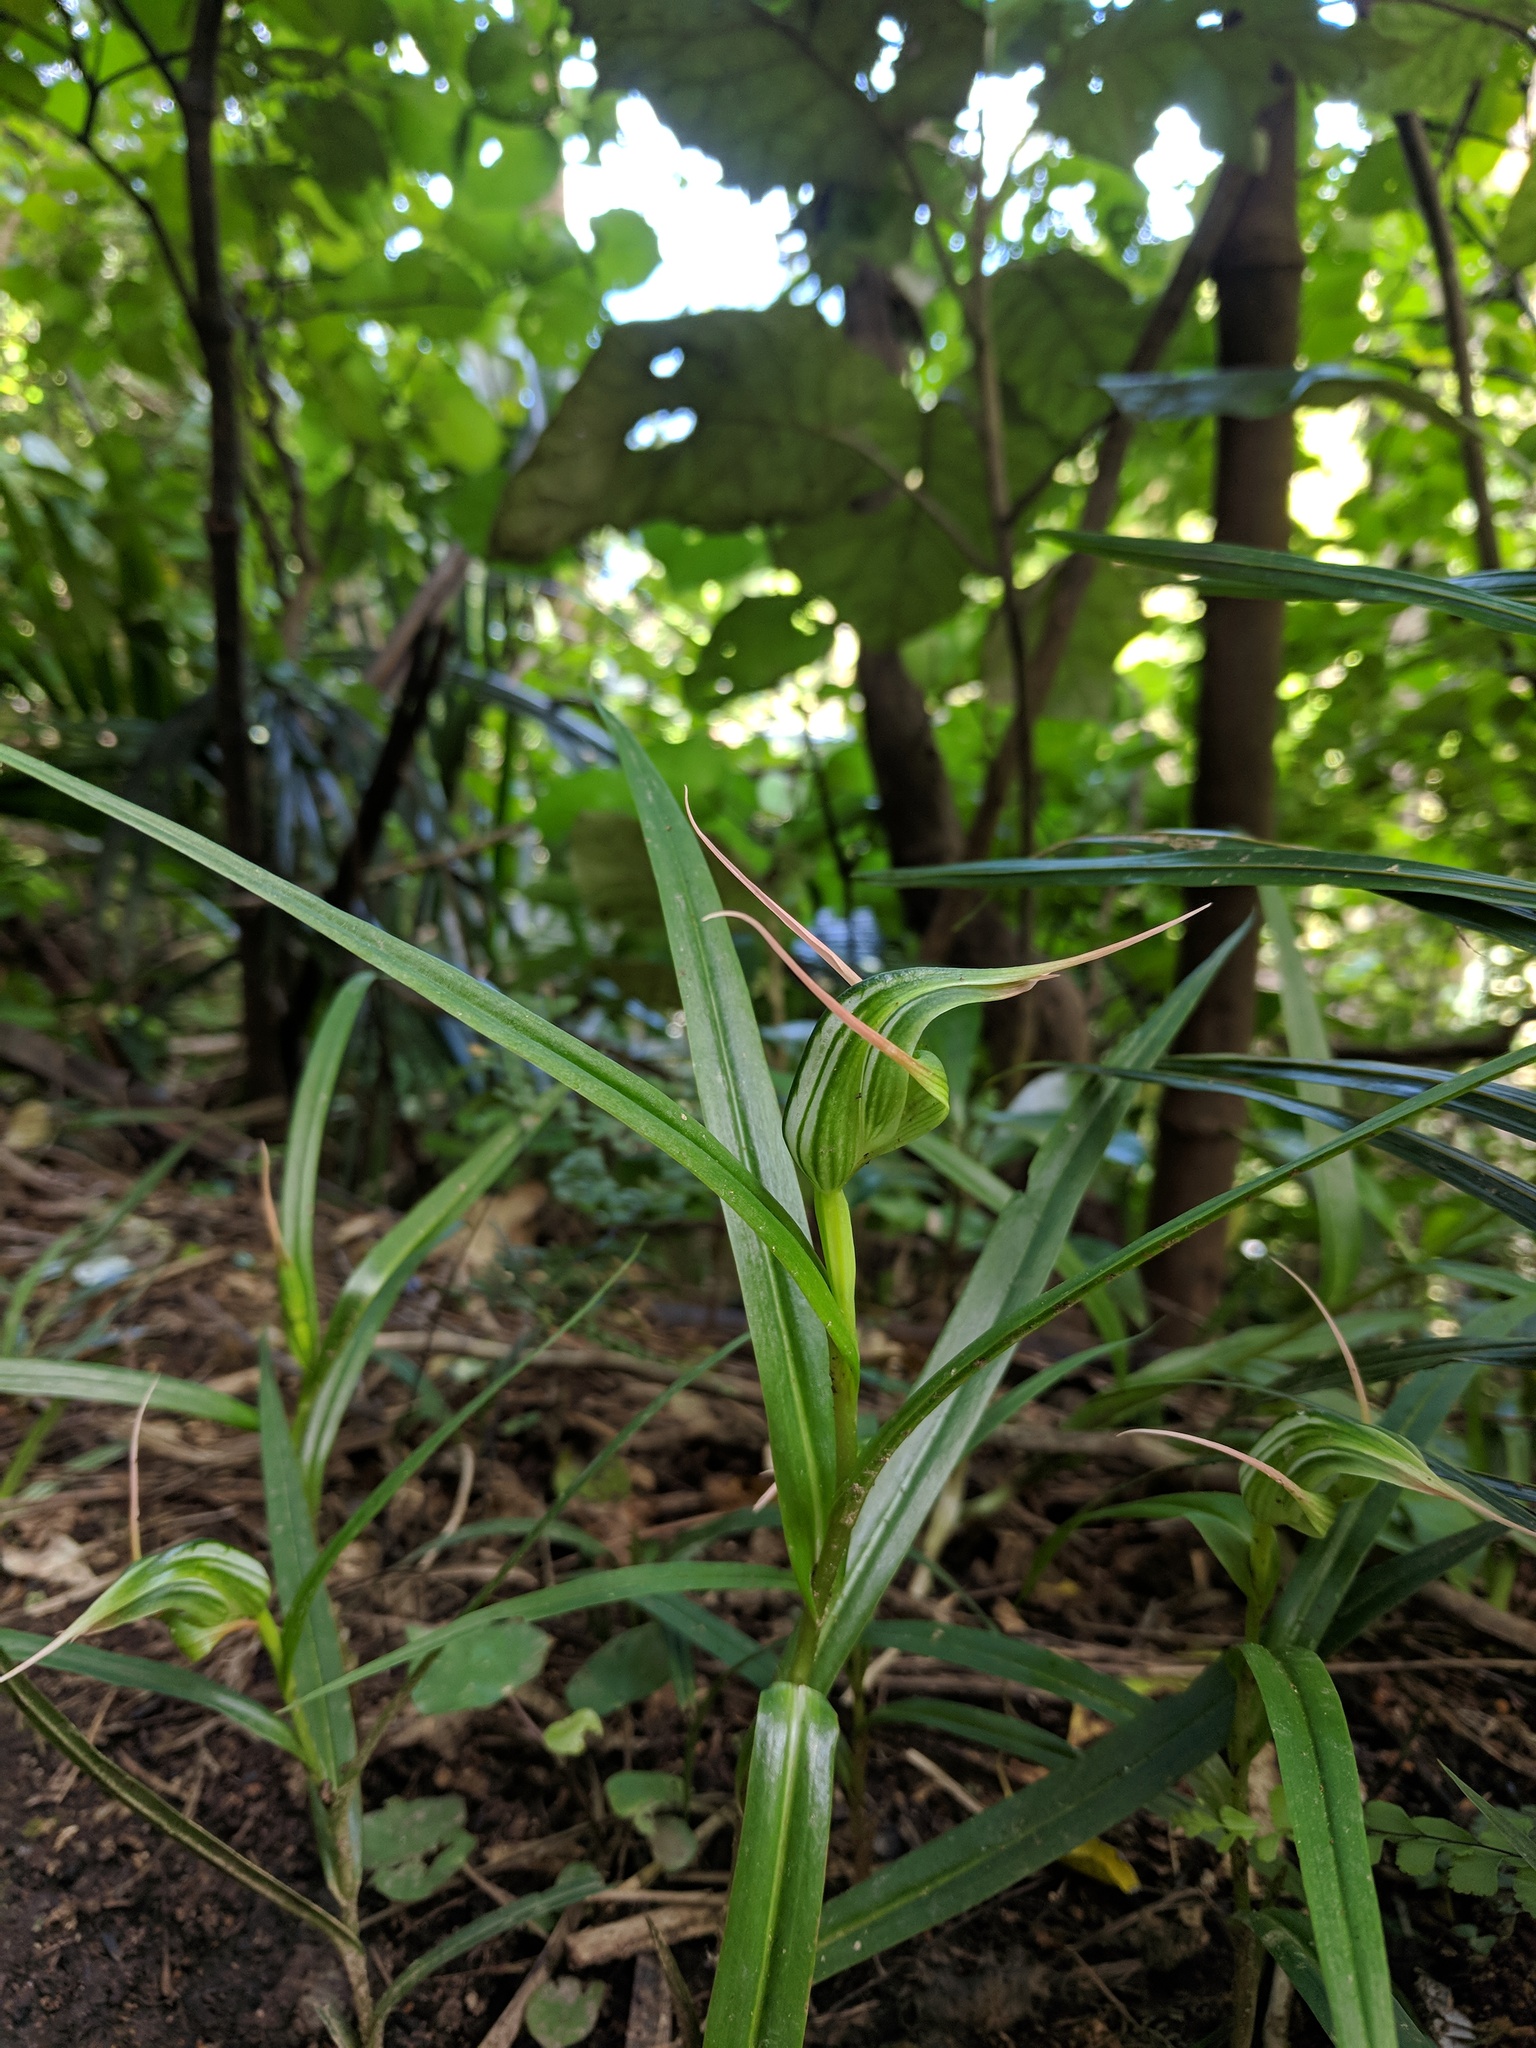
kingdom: Plantae
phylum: Tracheophyta
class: Liliopsida
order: Asparagales
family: Orchidaceae
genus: Pterostylis
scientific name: Pterostylis banksii
